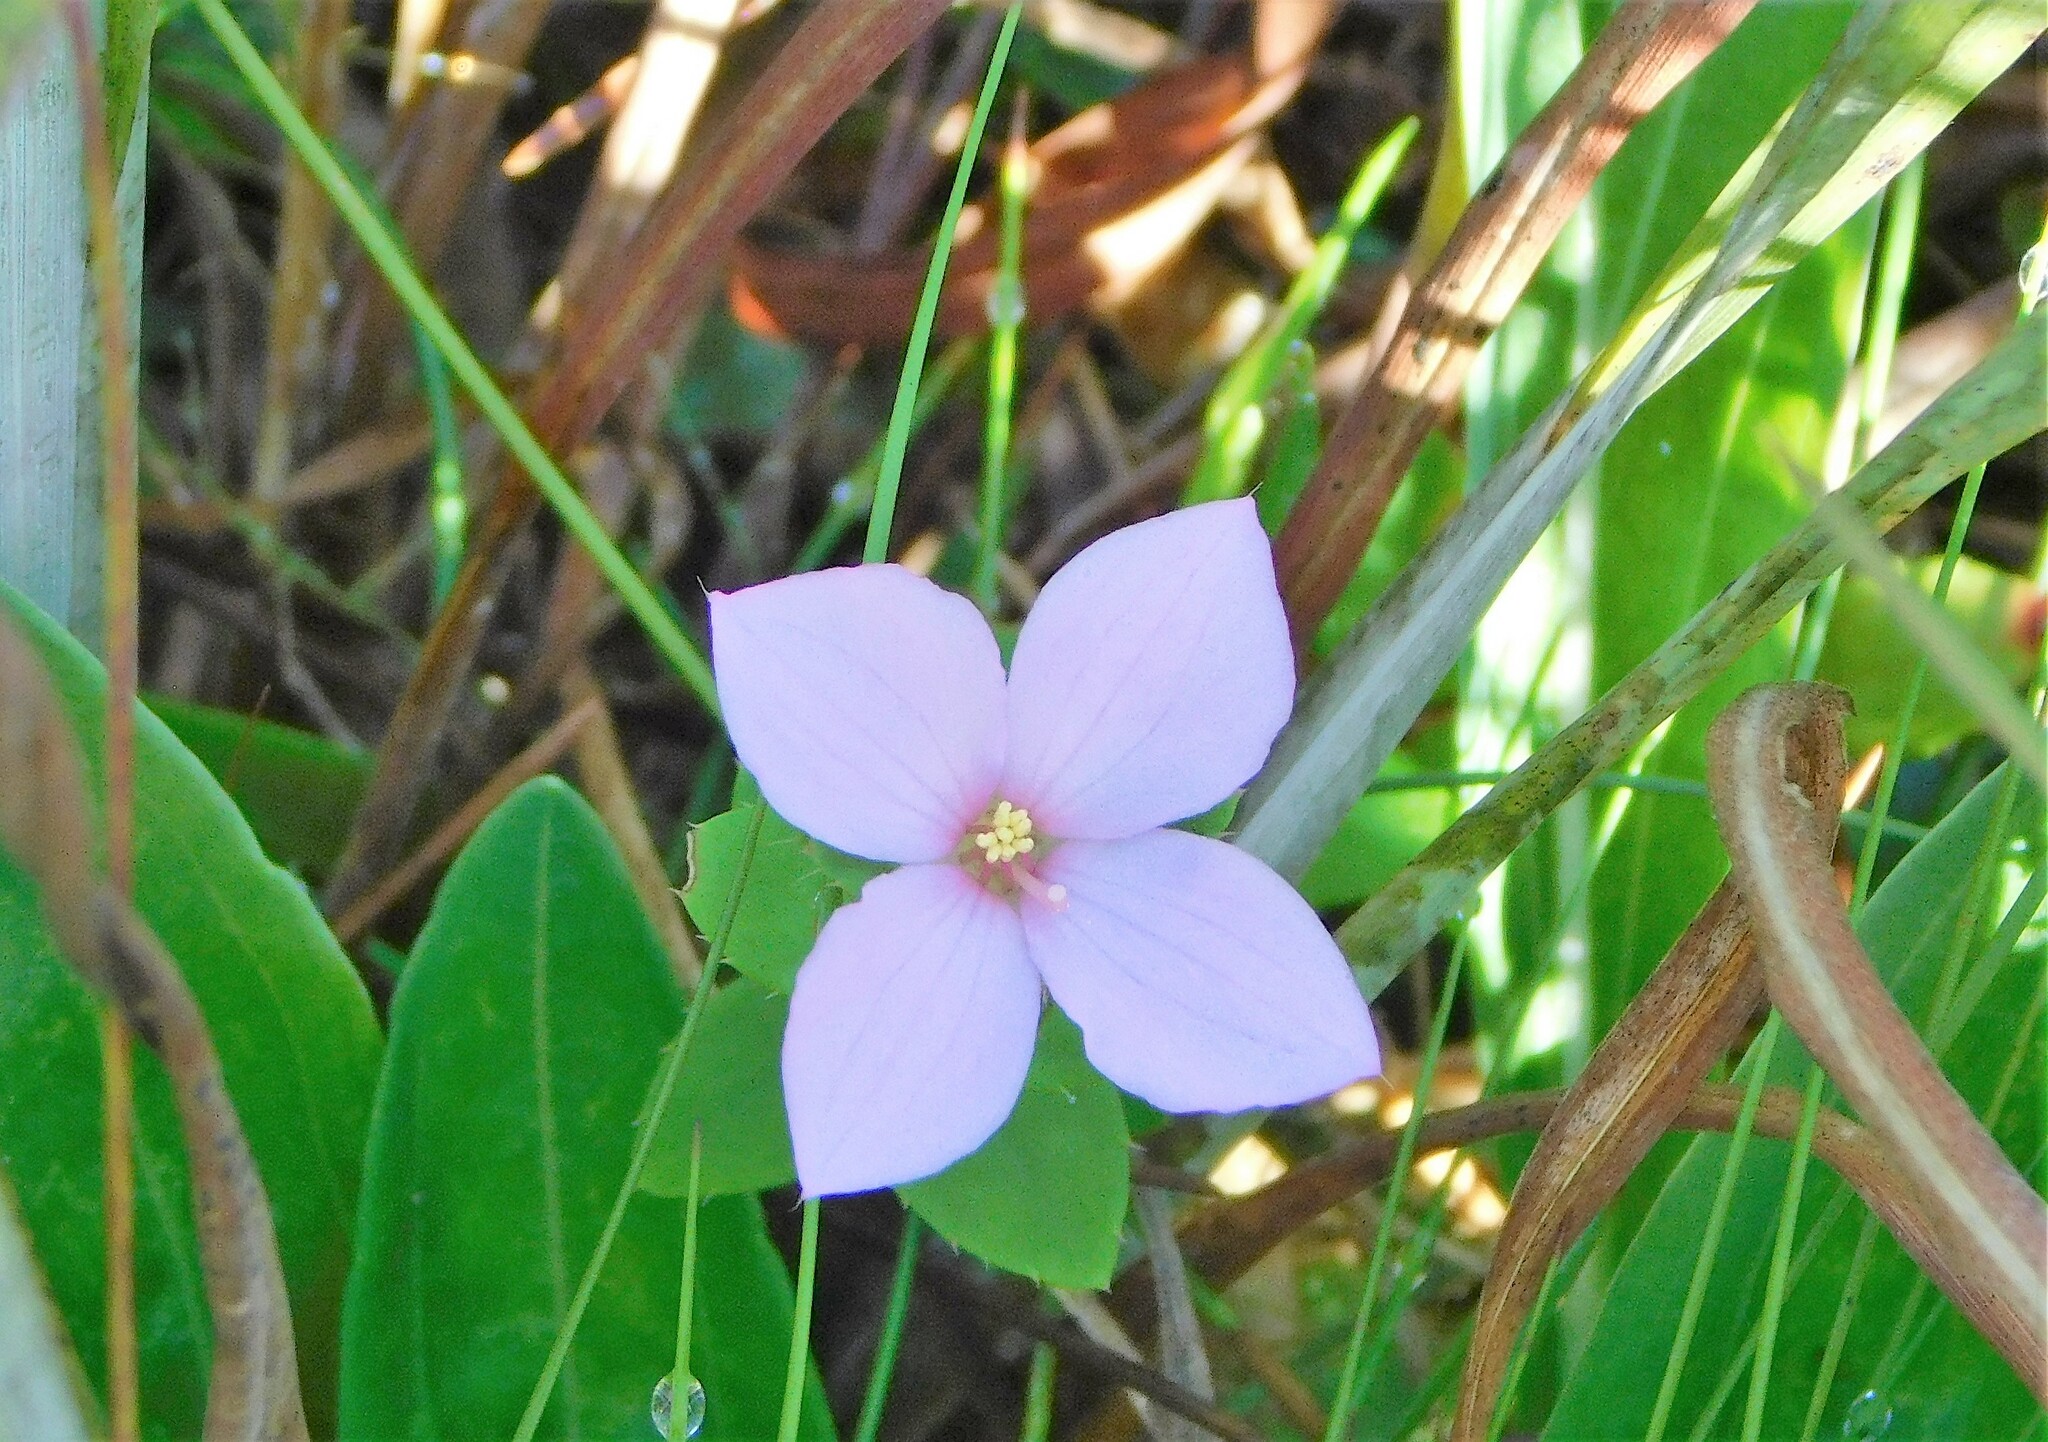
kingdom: Plantae
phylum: Tracheophyta
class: Magnoliopsida
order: Myrtales
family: Melastomataceae
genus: Rhexia
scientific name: Rhexia nuttallii
